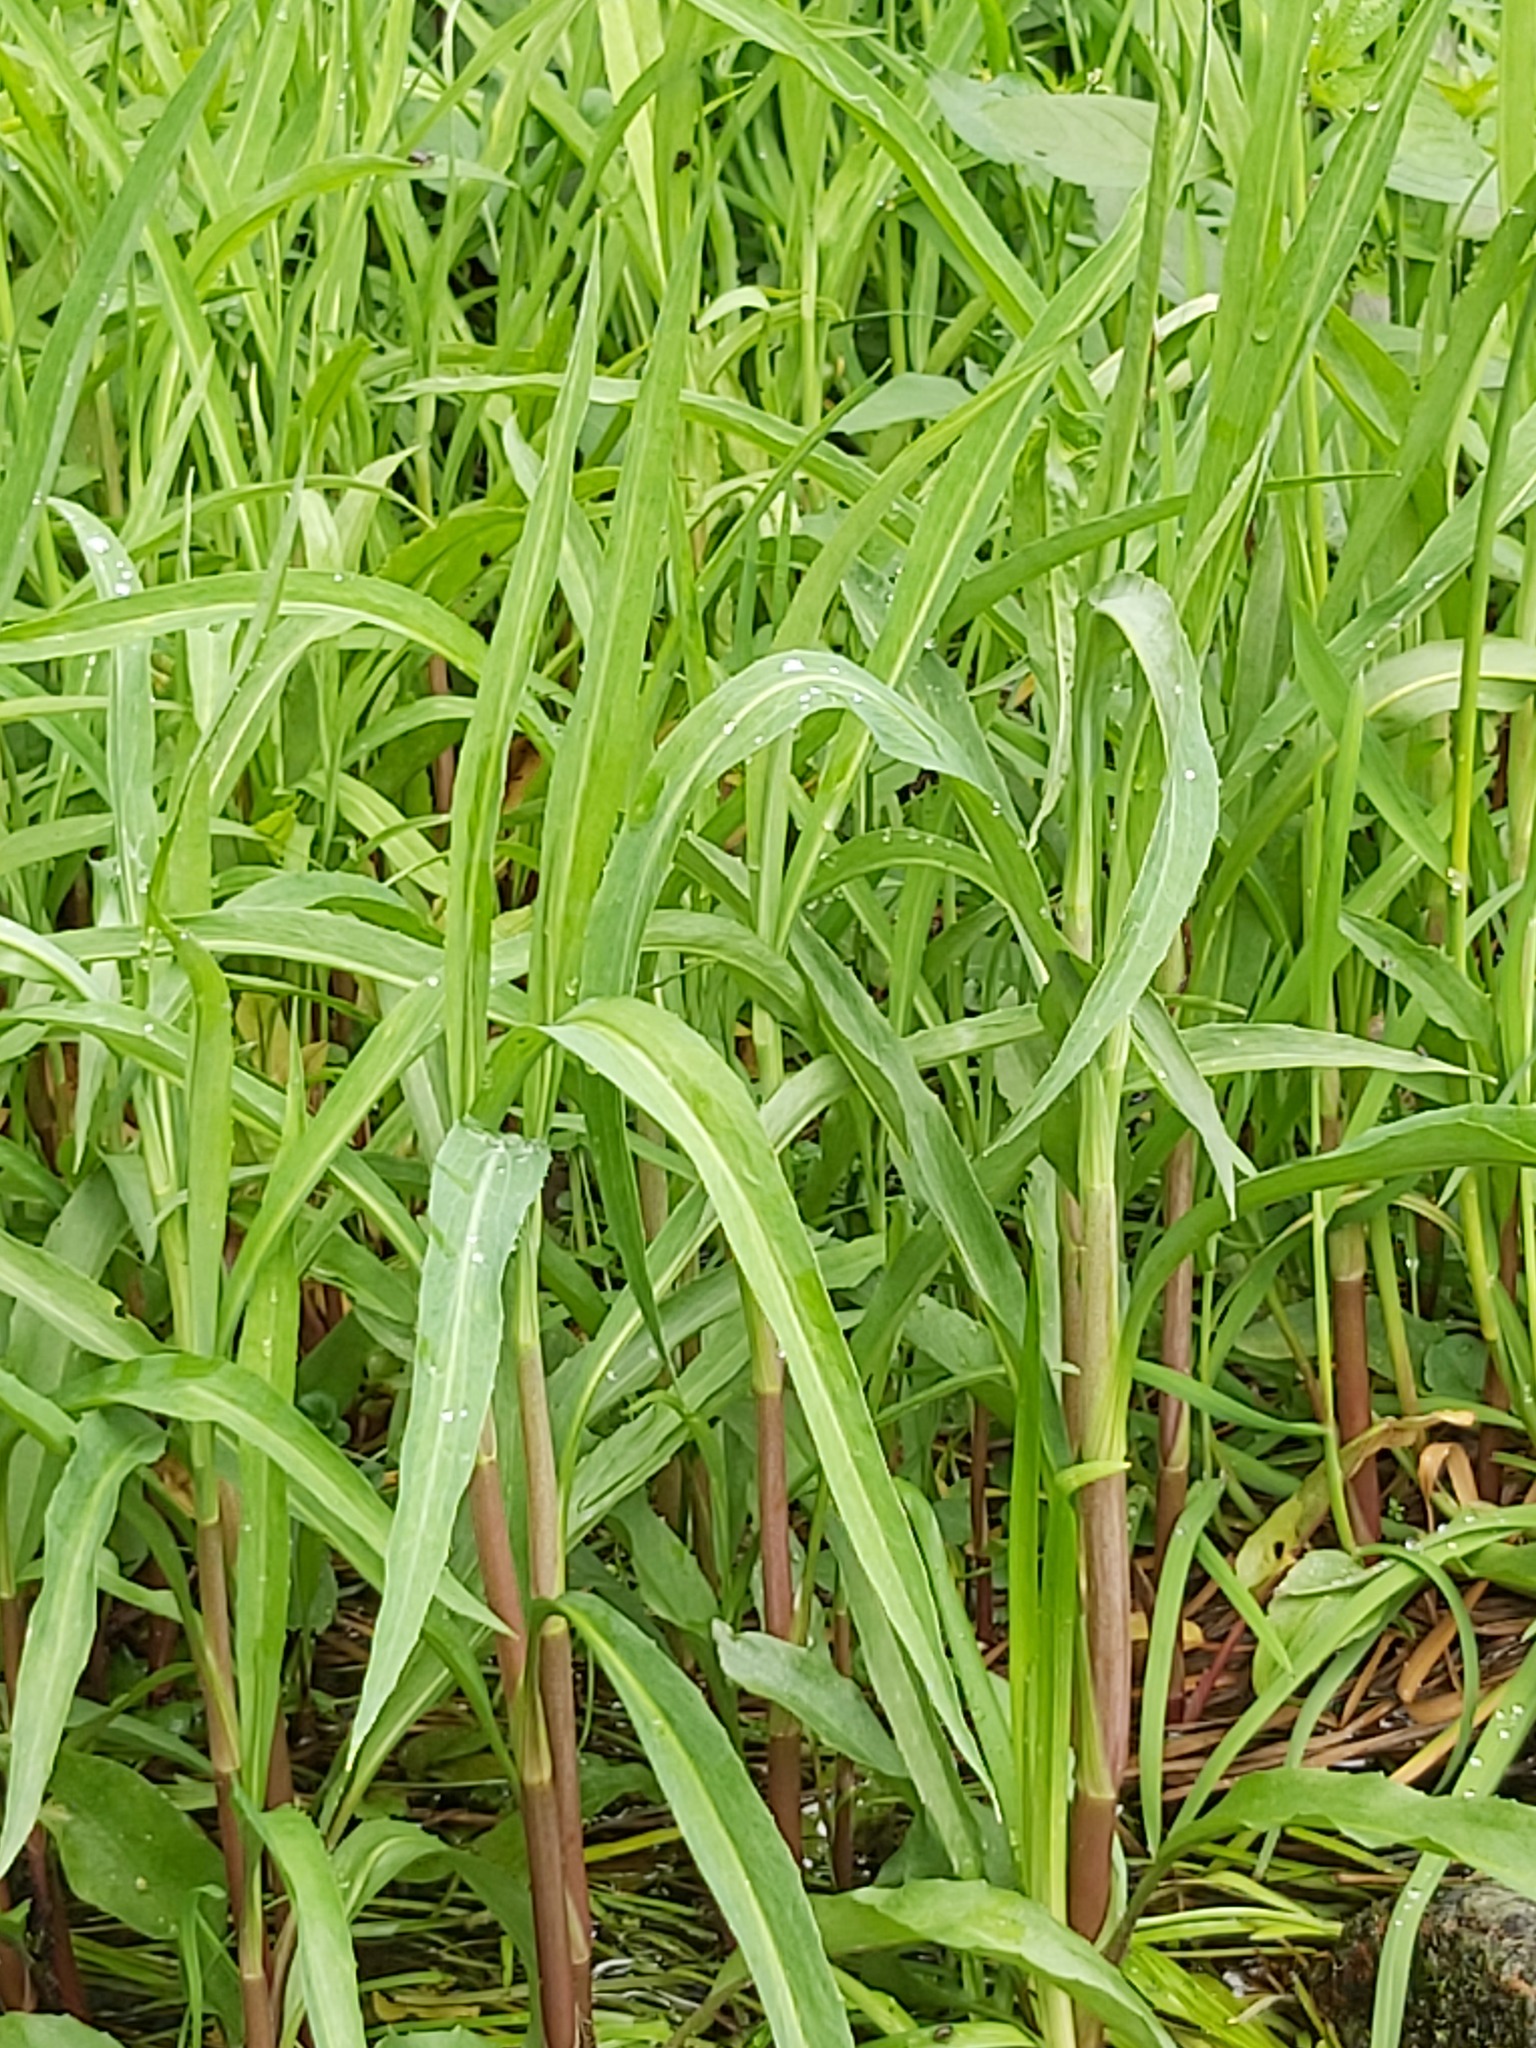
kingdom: Plantae
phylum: Tracheophyta
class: Magnoliopsida
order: Ranunculales
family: Ranunculaceae
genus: Ranunculus
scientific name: Ranunculus lingua
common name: Greater spearwort
